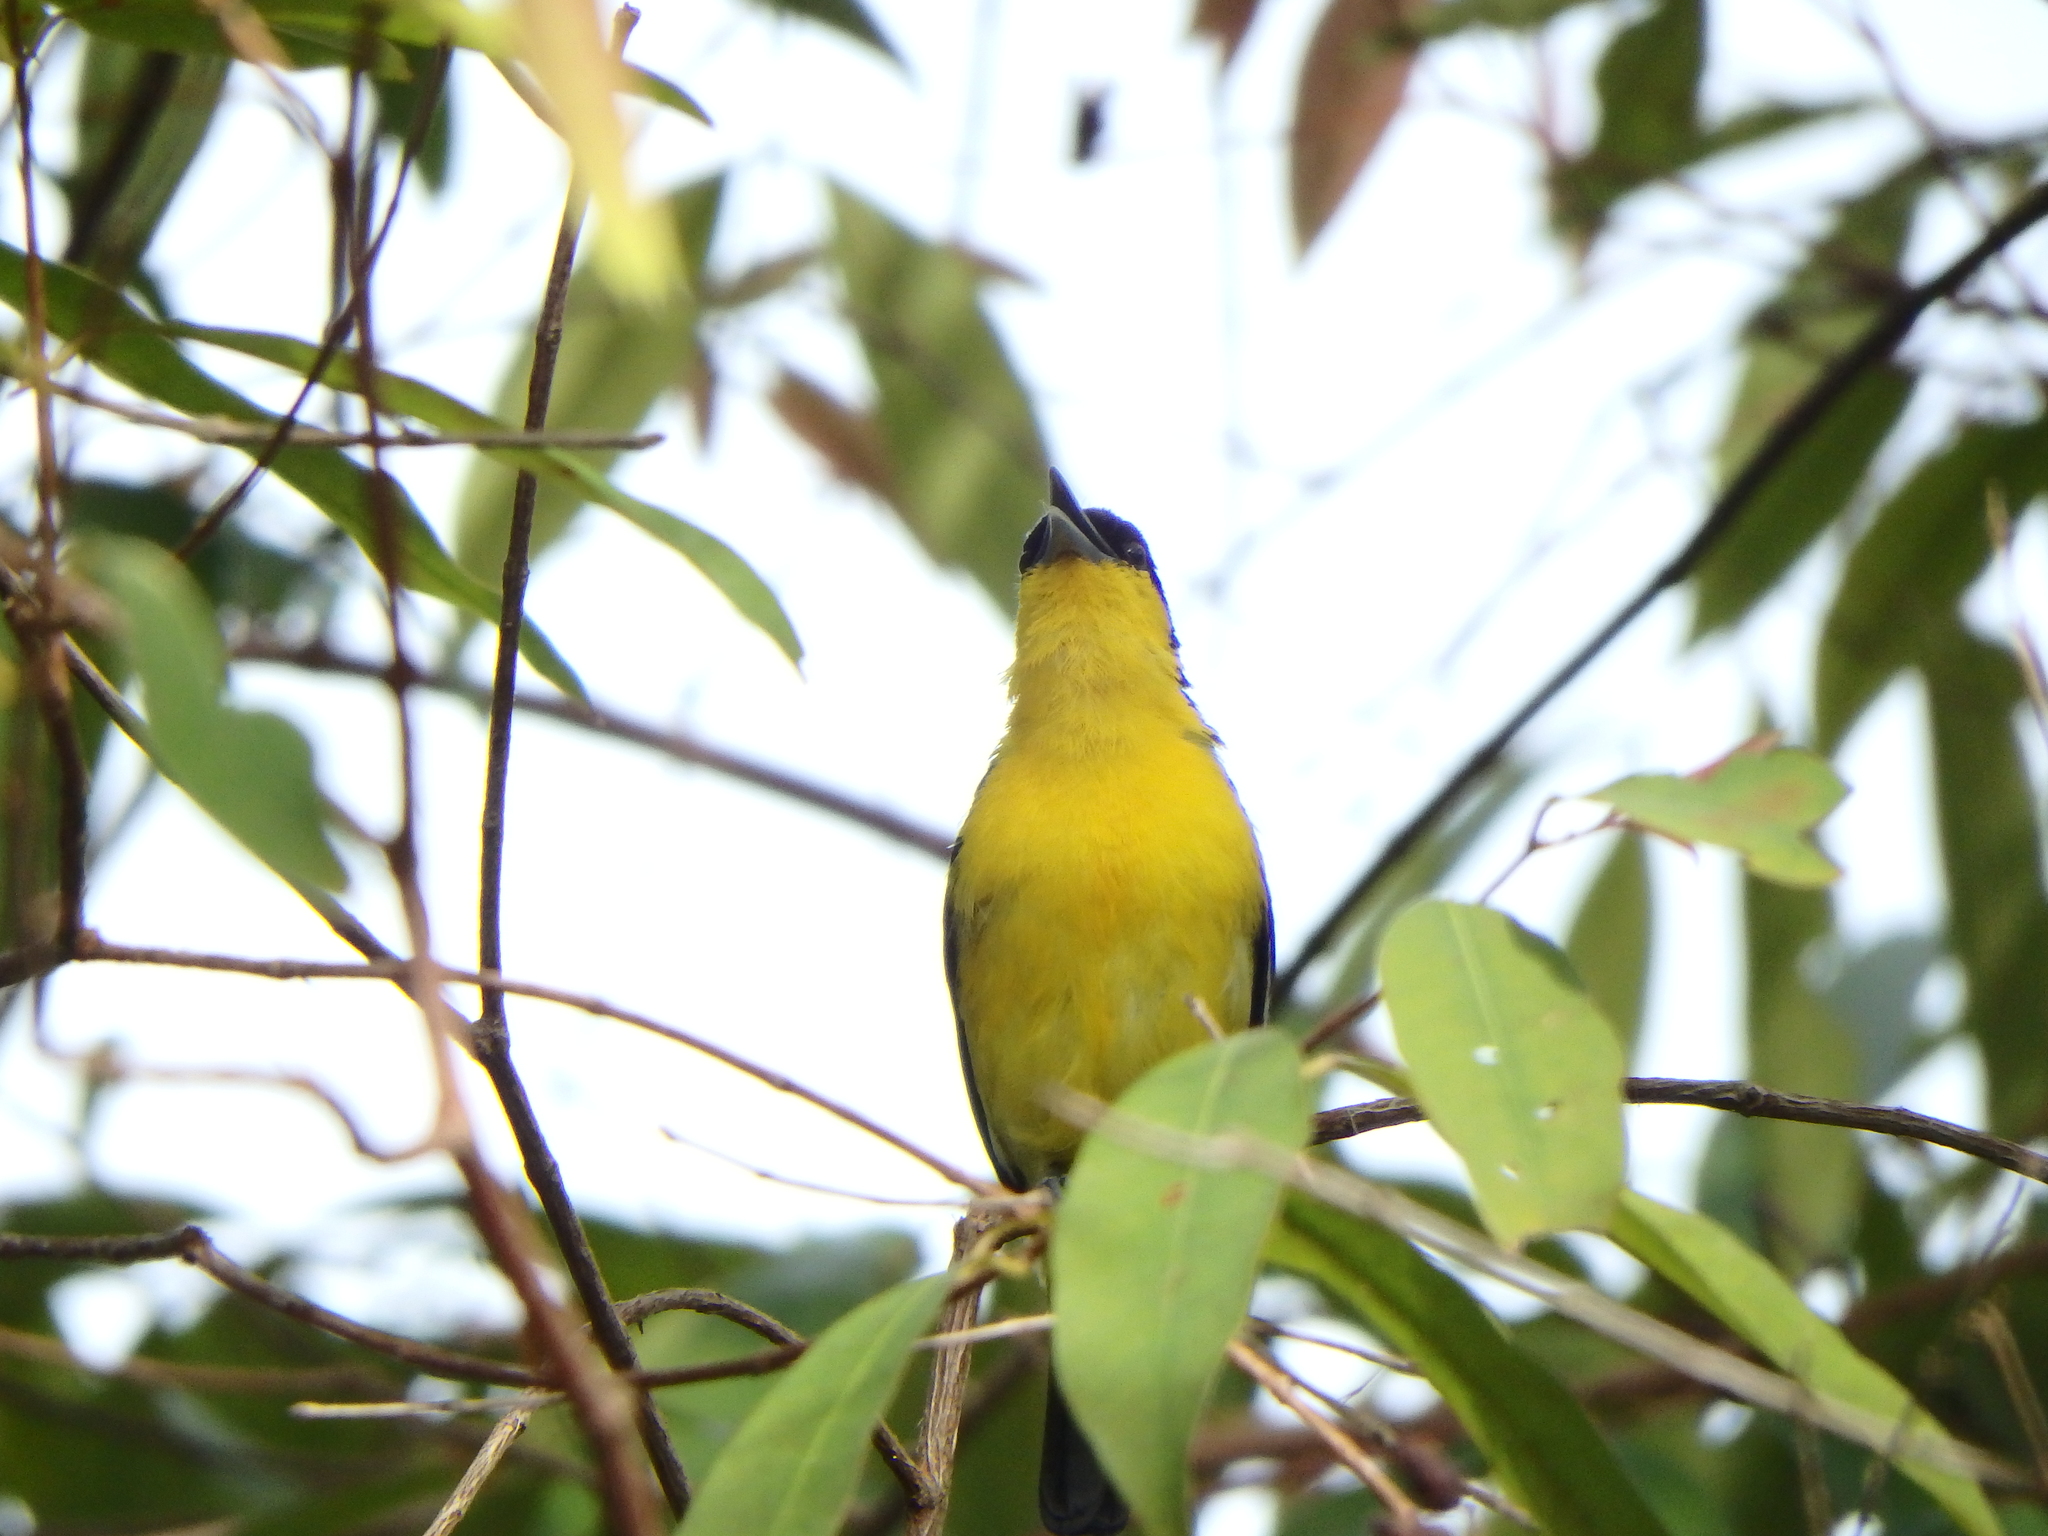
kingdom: Animalia
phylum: Chordata
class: Aves
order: Passeriformes
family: Aegithinidae
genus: Aegithina
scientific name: Aegithina tiphia
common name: Common iora
